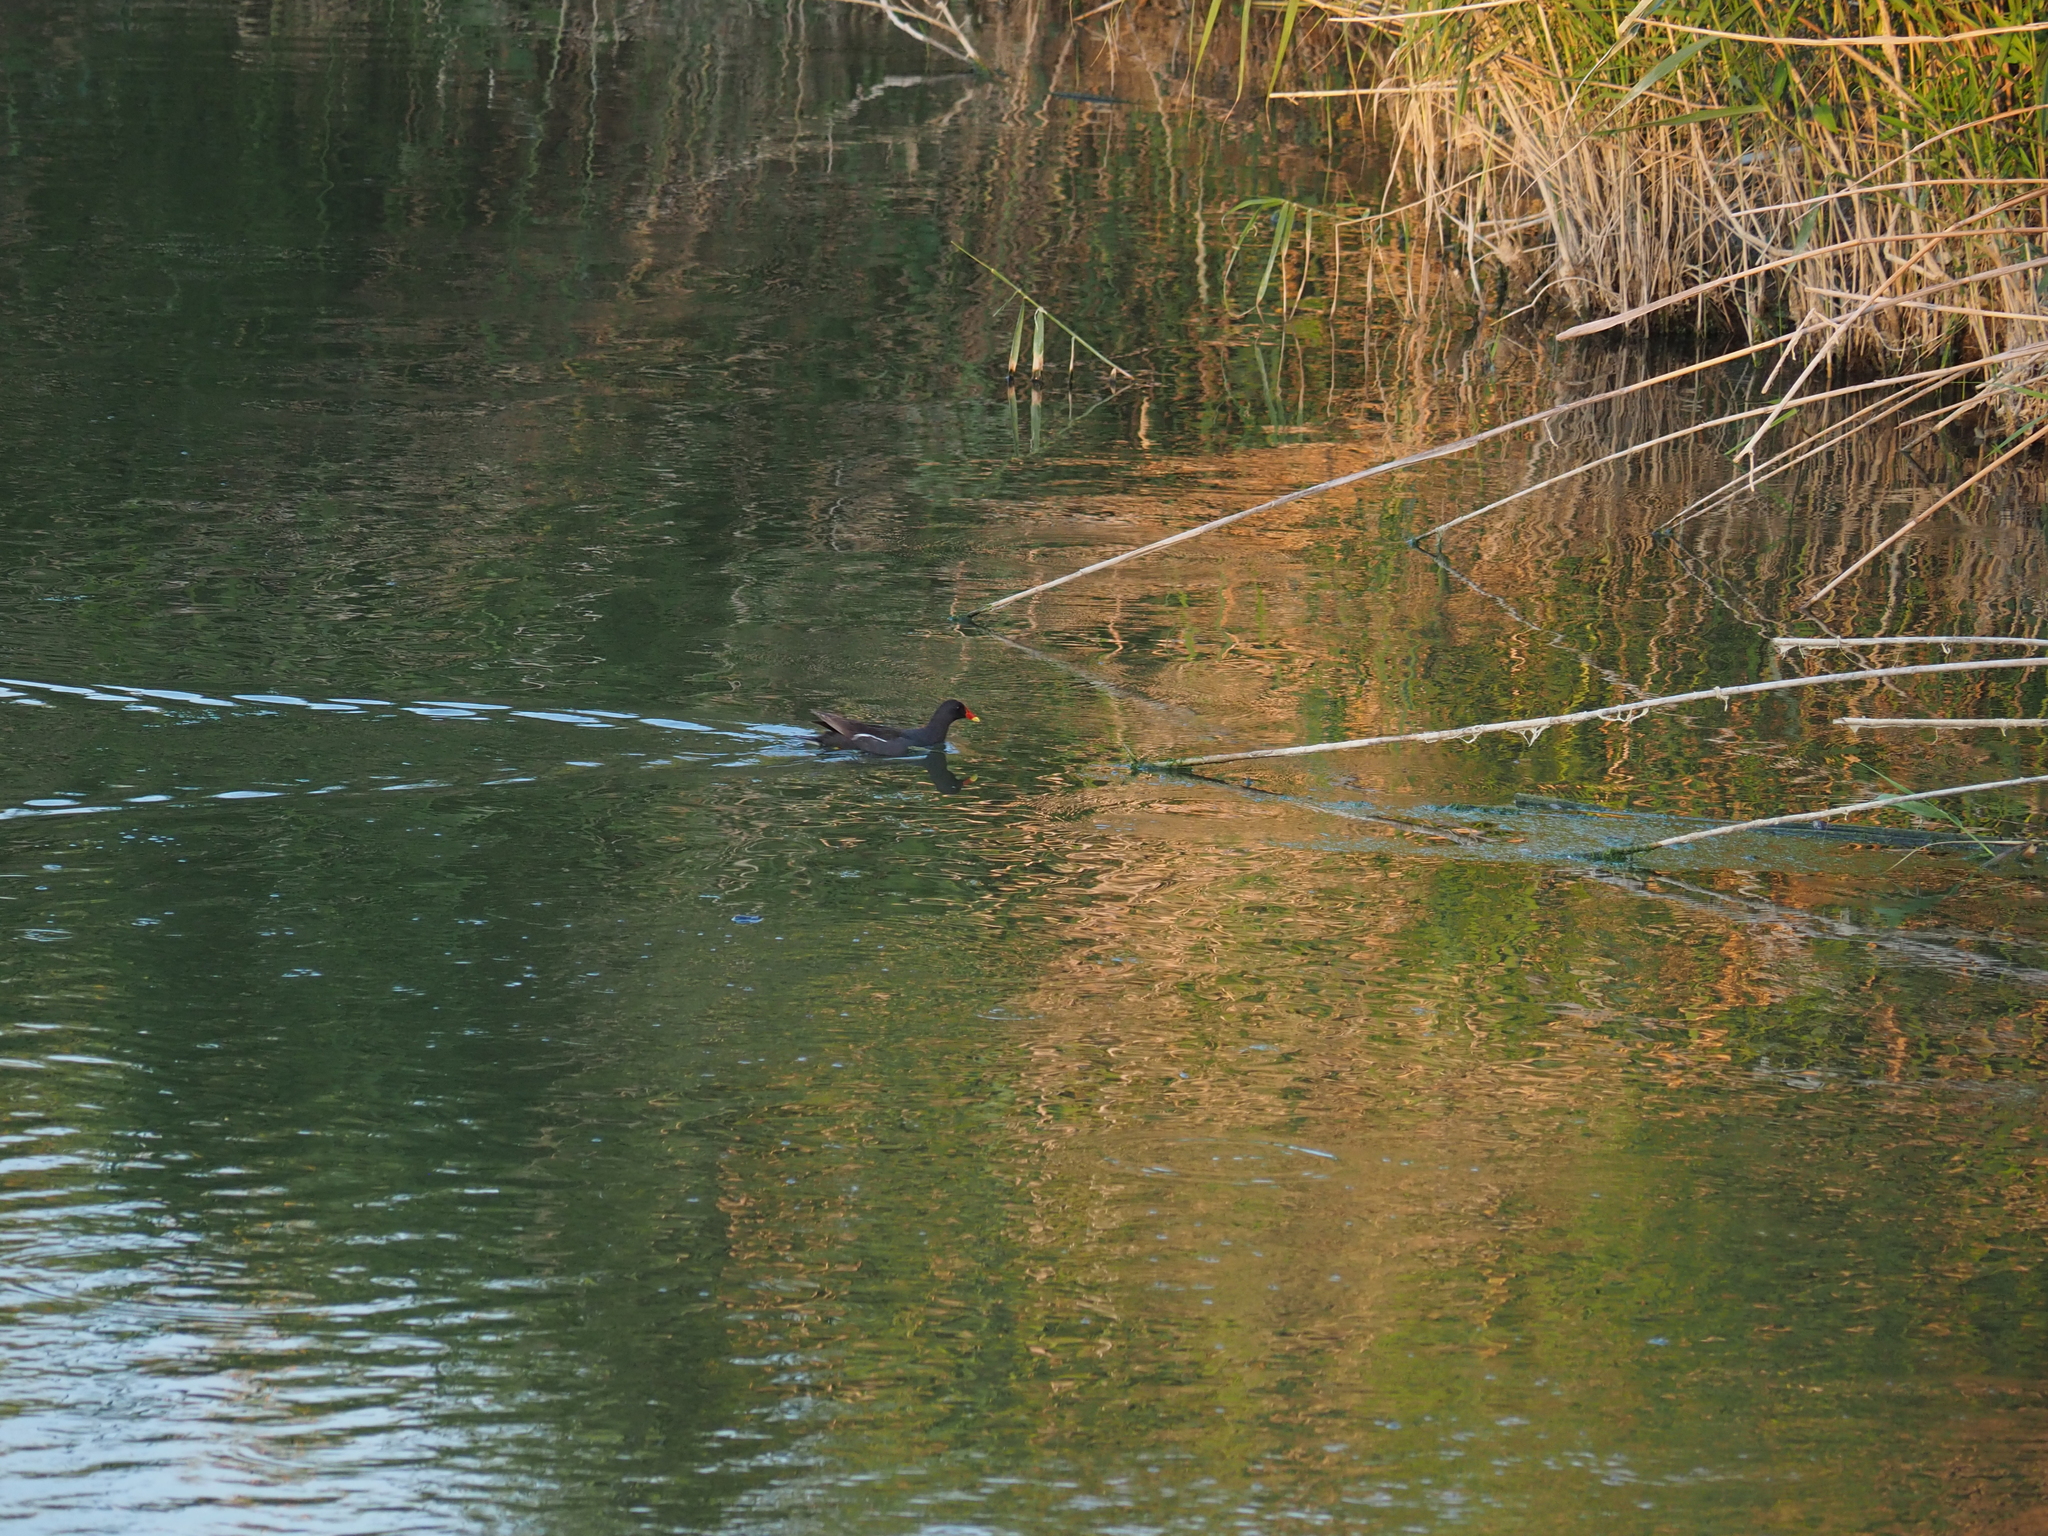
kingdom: Animalia
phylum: Chordata
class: Aves
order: Gruiformes
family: Rallidae
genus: Gallinula
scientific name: Gallinula chloropus
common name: Common moorhen
